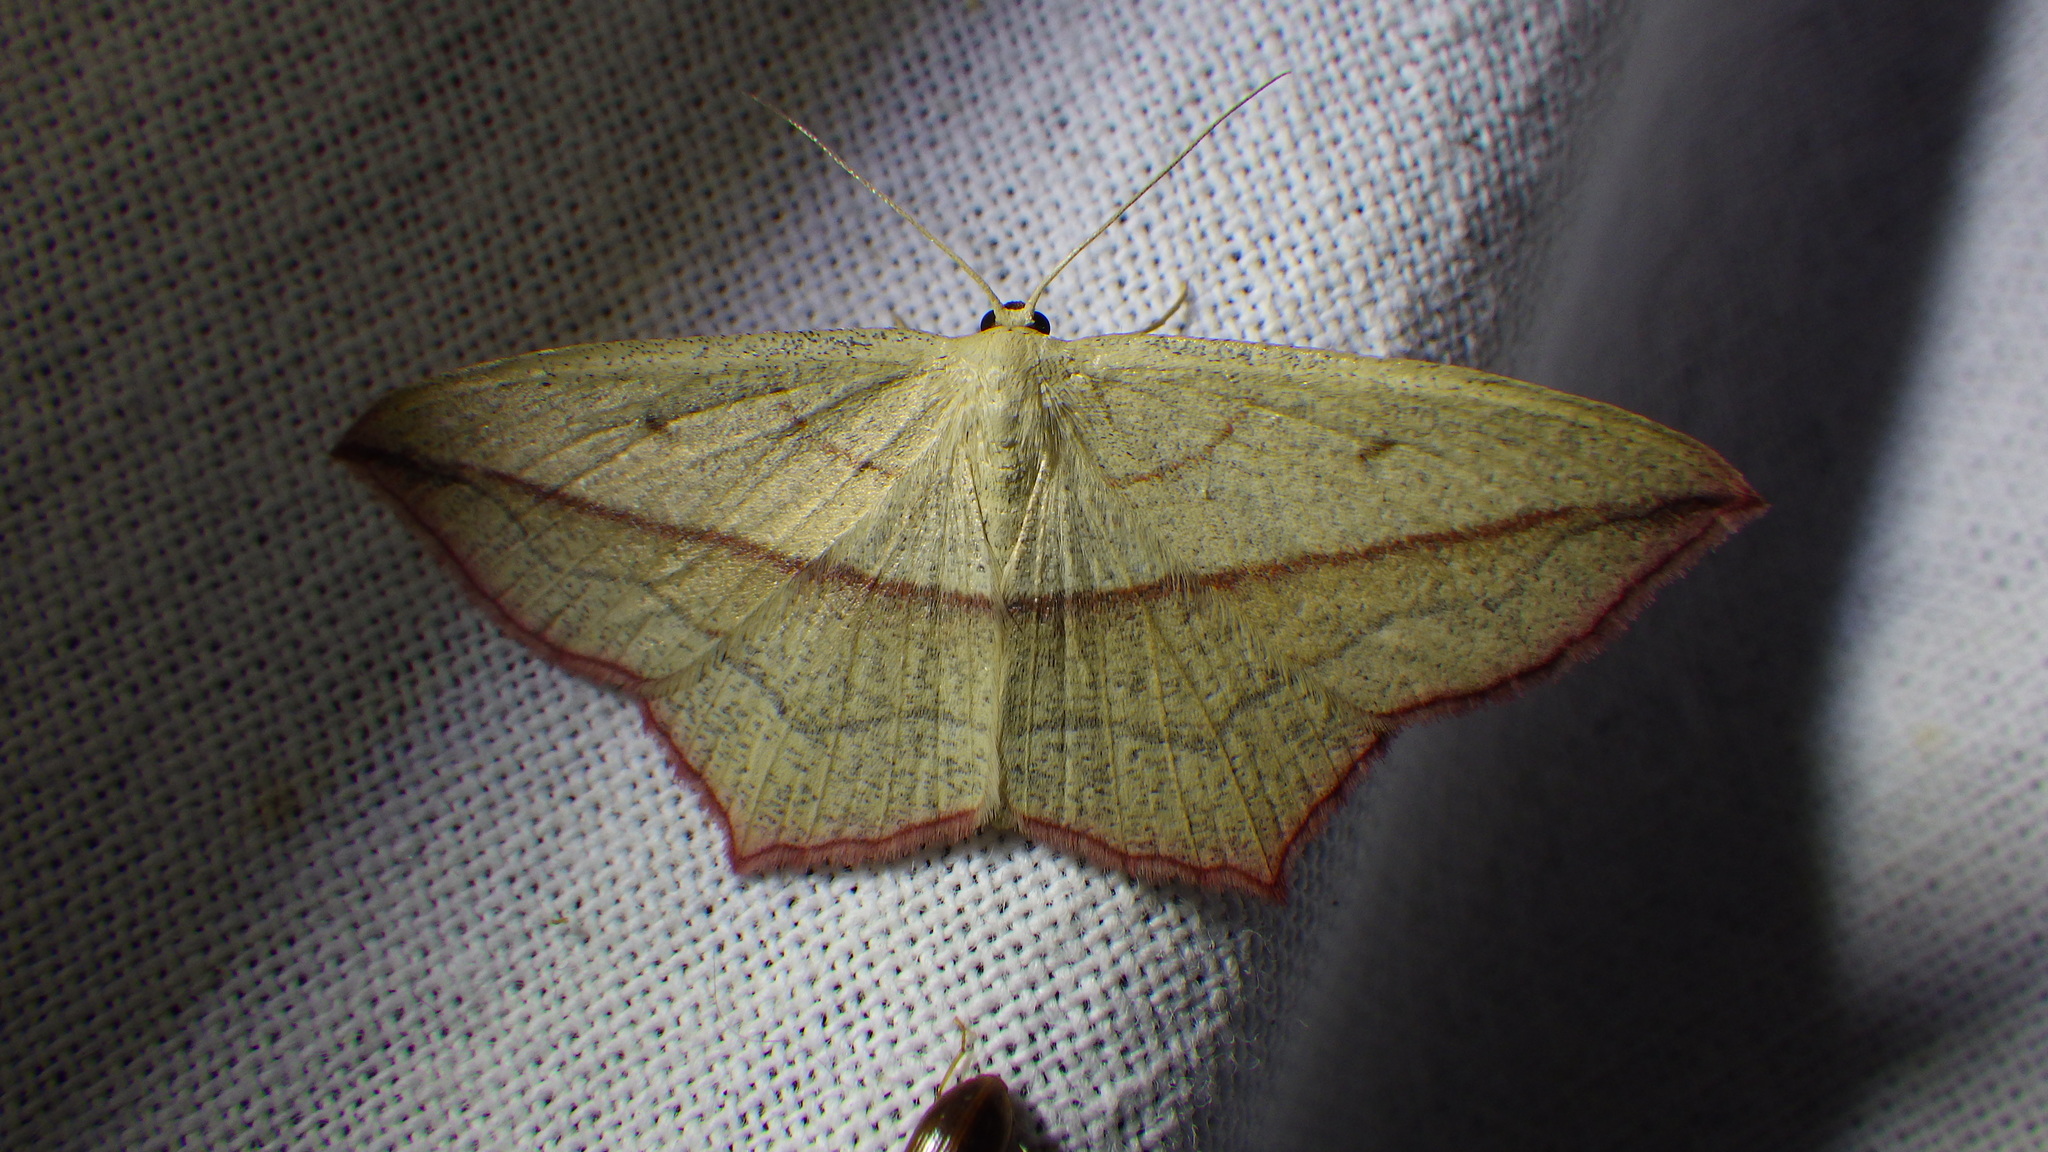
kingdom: Animalia
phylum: Arthropoda
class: Insecta
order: Lepidoptera
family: Geometridae
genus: Timandra
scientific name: Timandra comae
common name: Blood-vein
